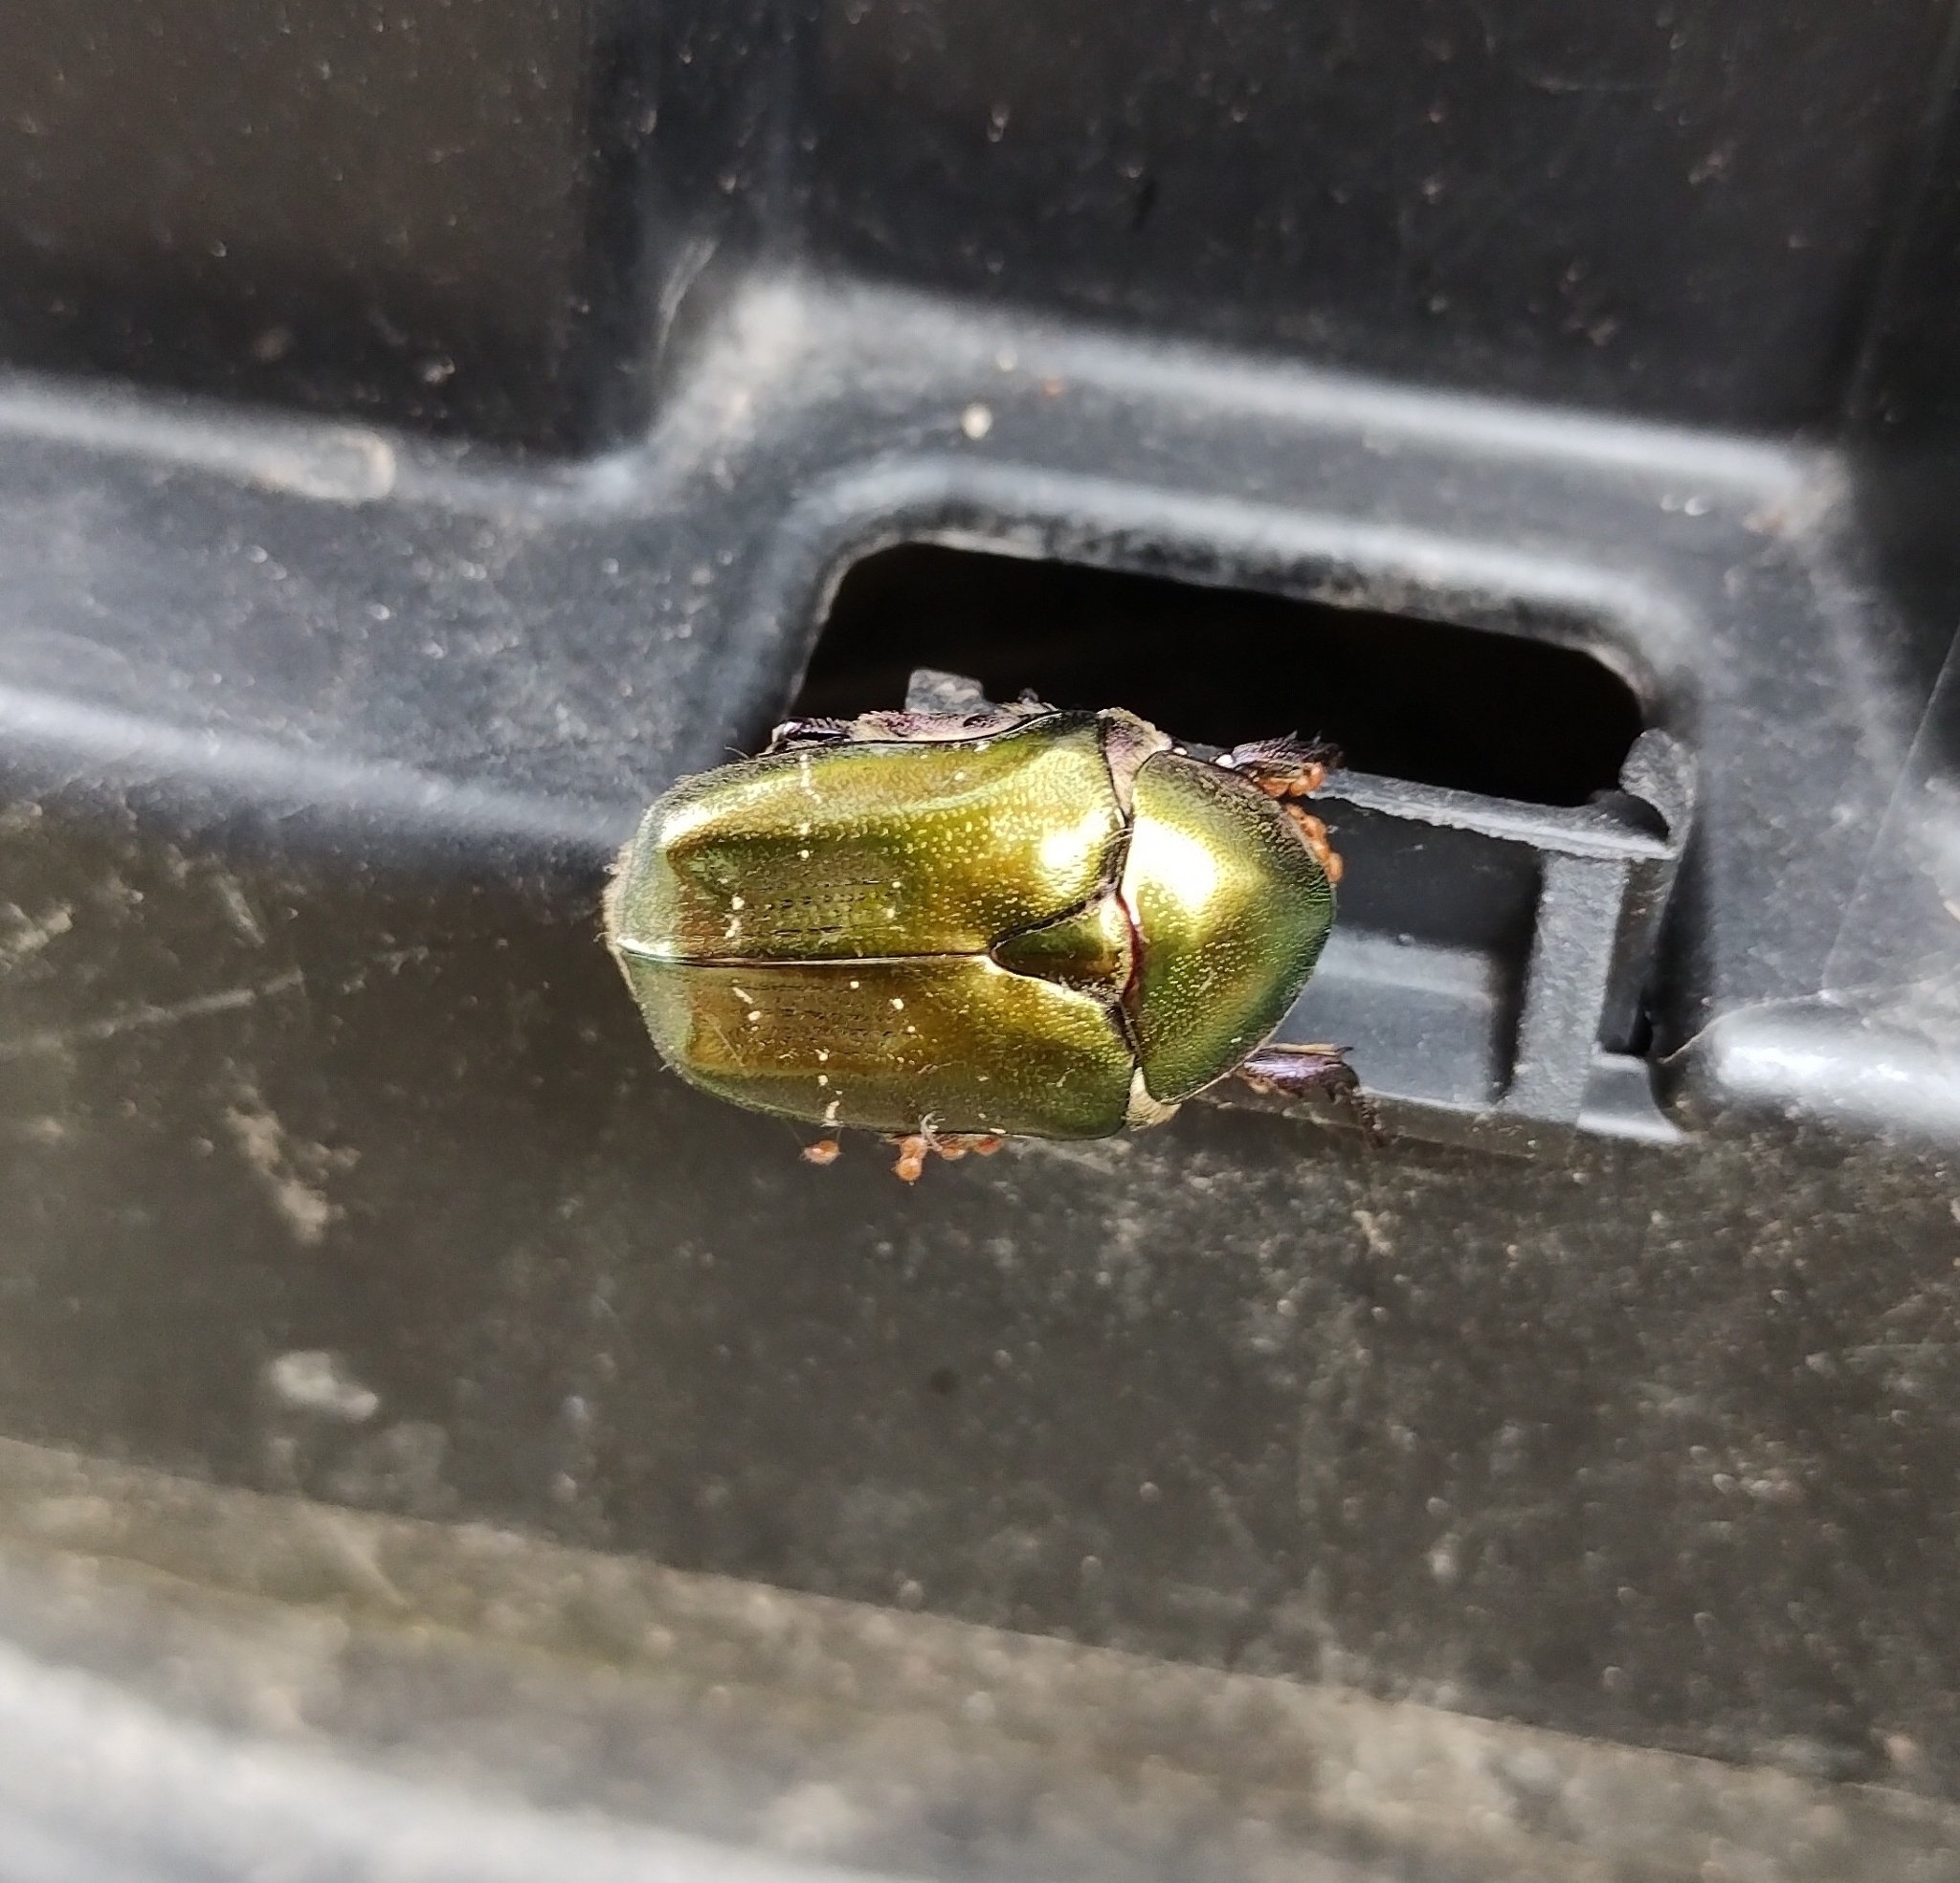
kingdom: Animalia
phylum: Arthropoda
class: Insecta
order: Coleoptera
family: Scarabaeidae
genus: Protaetia
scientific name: Protaetia cuprea
